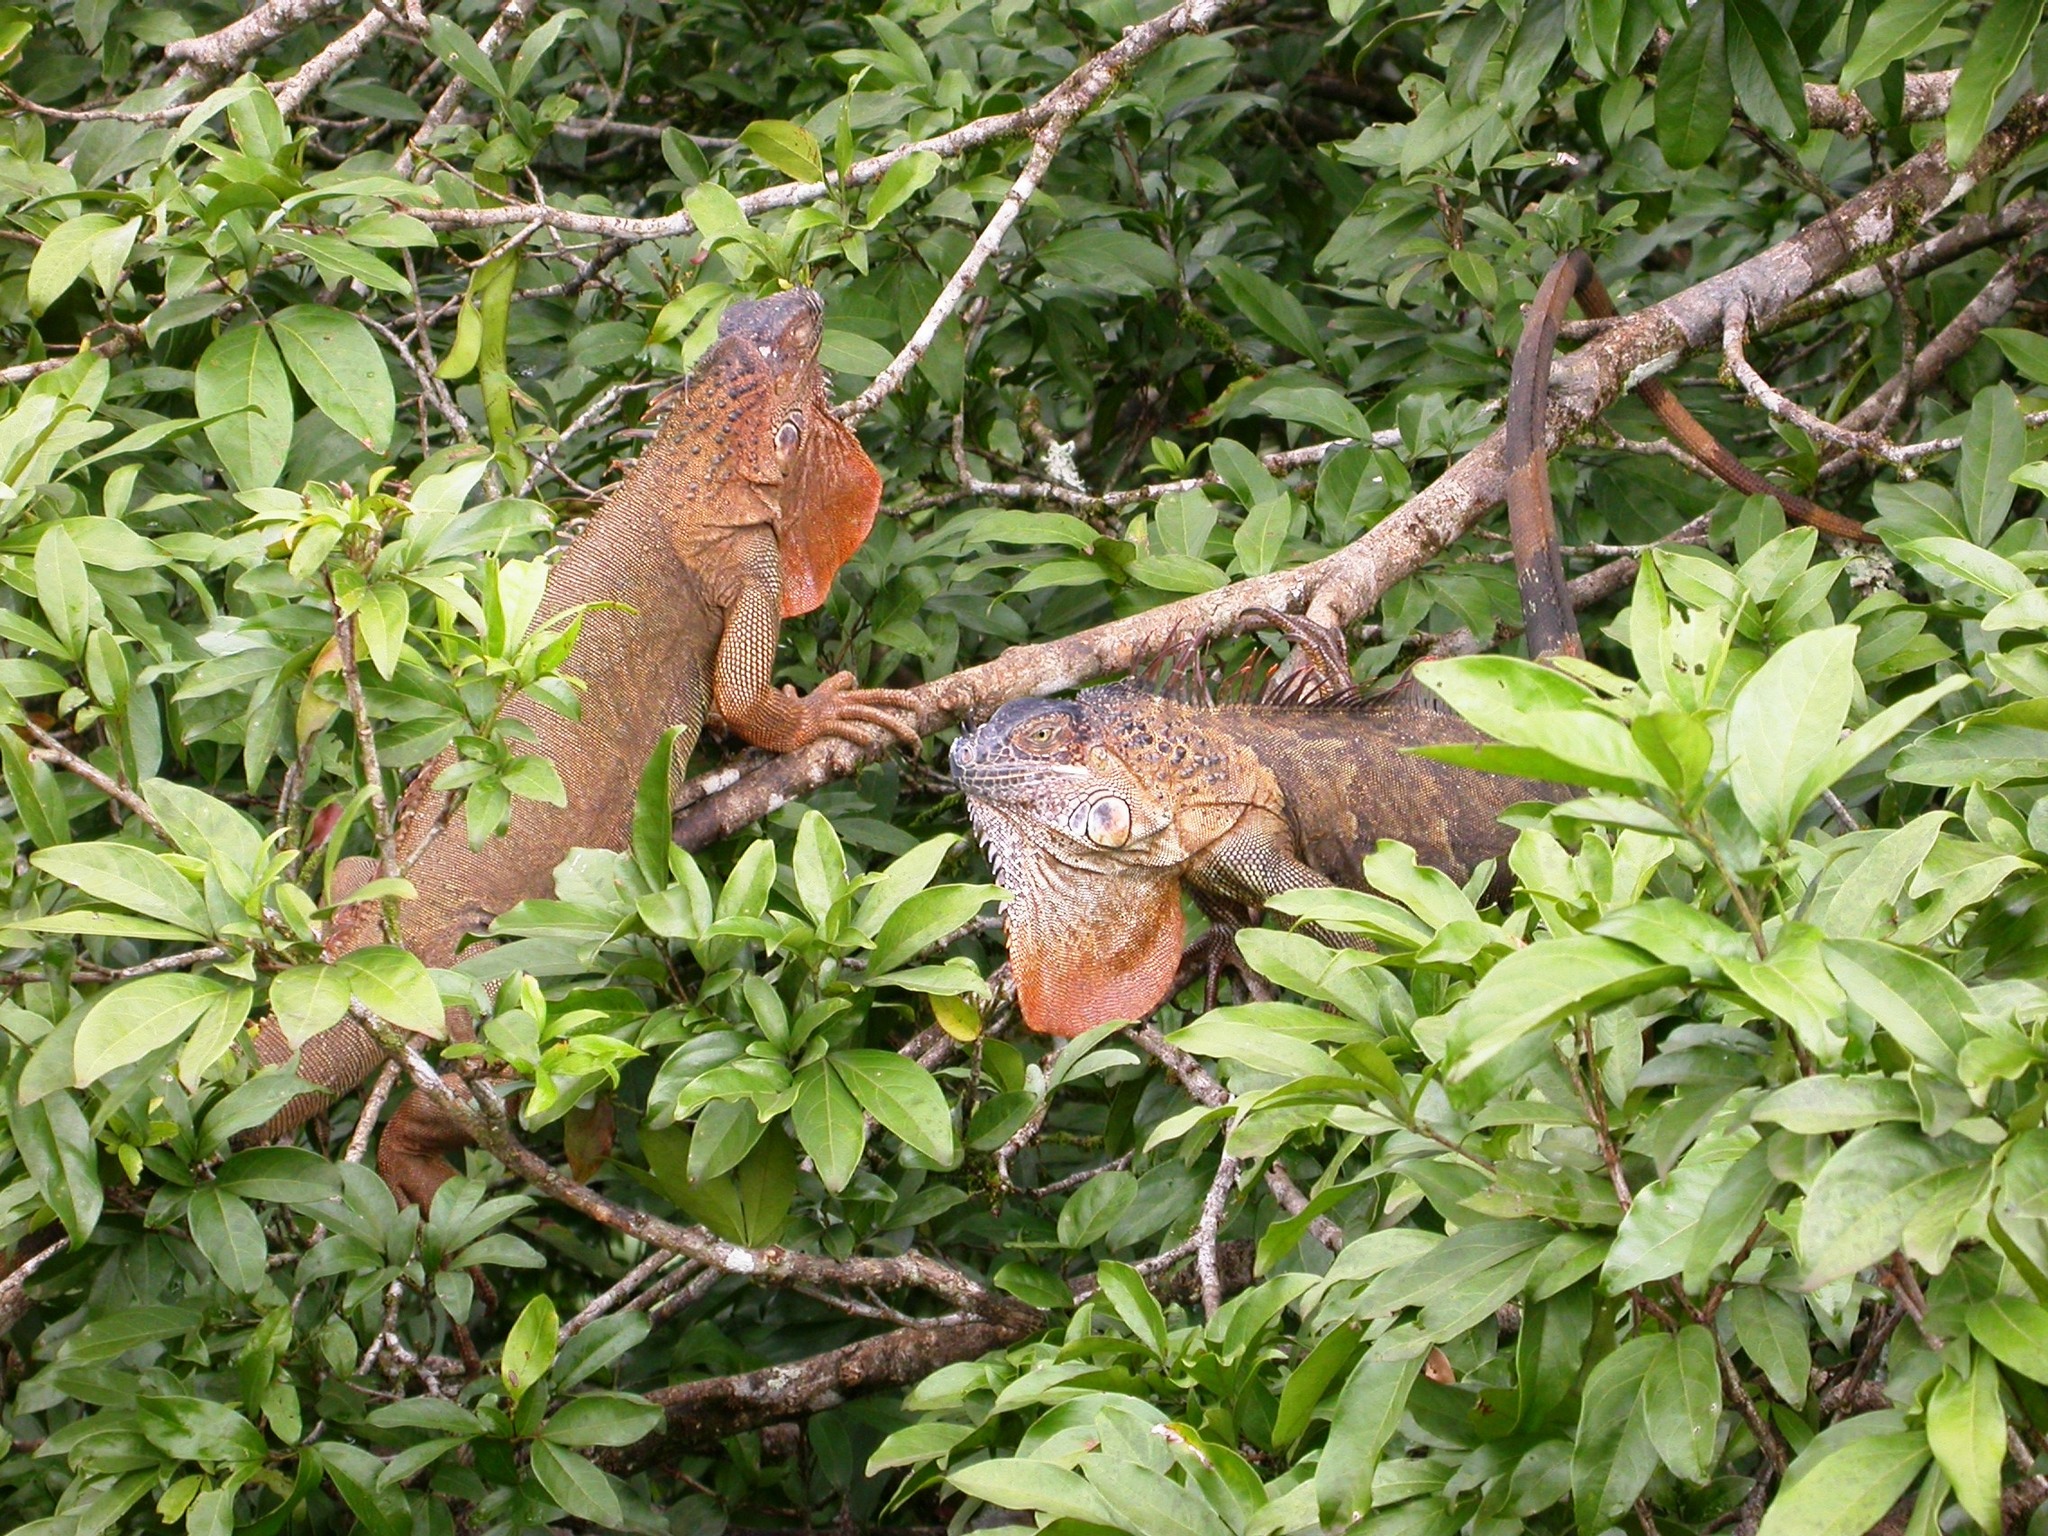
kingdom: Animalia
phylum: Chordata
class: Squamata
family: Iguanidae
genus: Iguana
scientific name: Iguana iguana
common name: Green iguana
